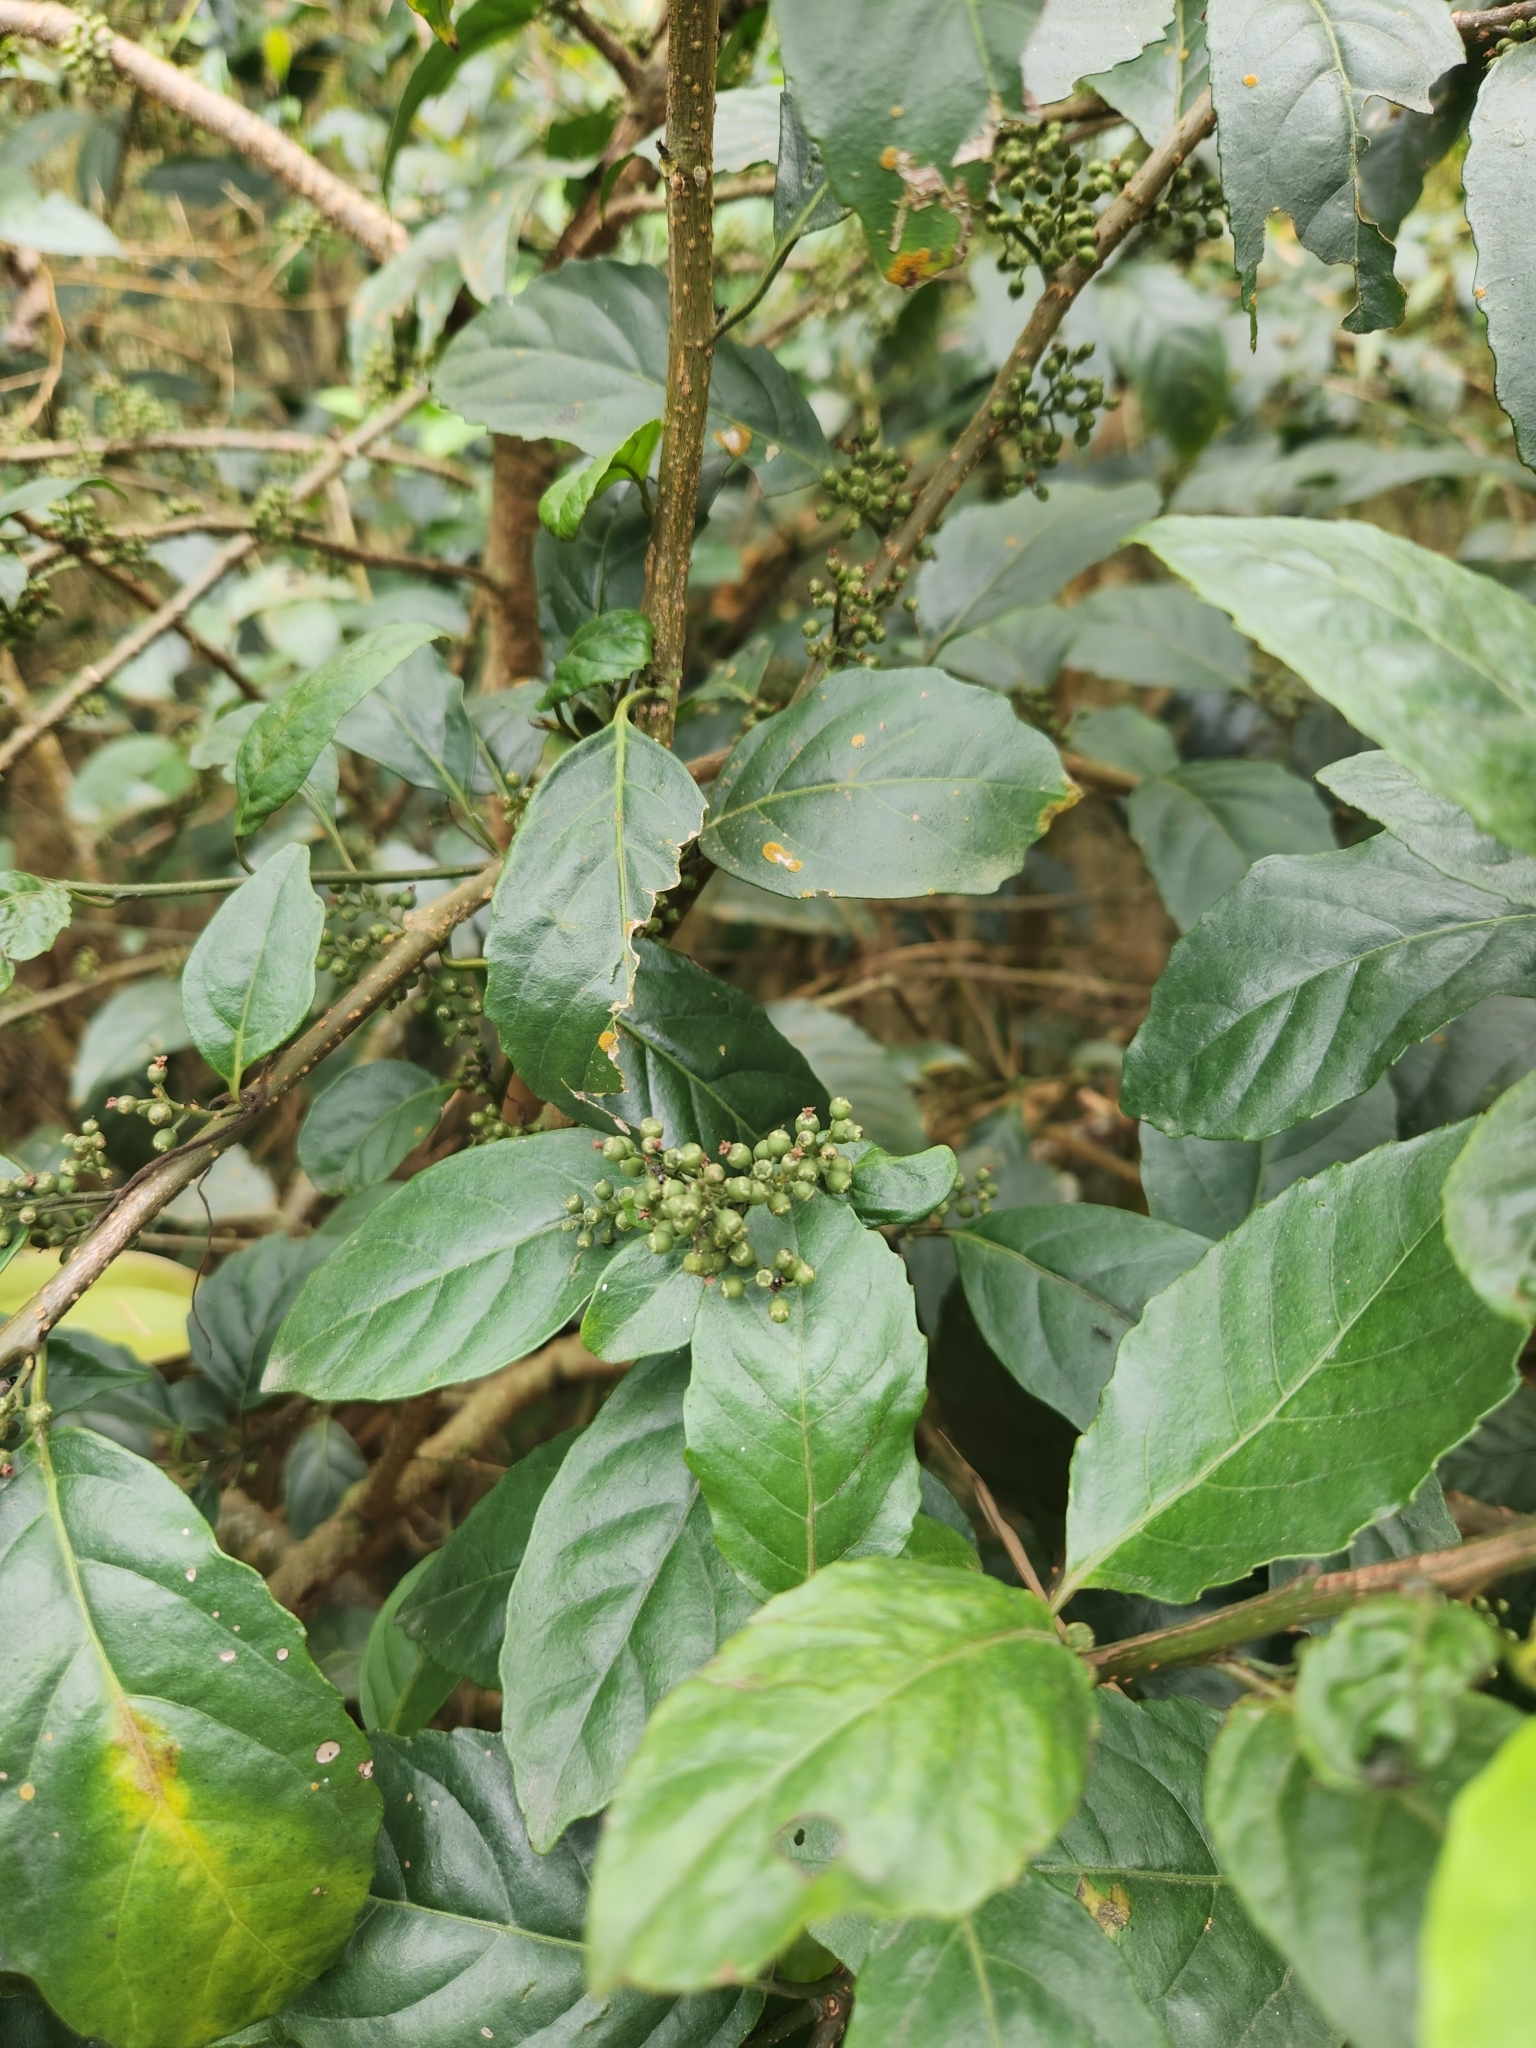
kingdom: Plantae
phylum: Tracheophyta
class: Magnoliopsida
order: Ericales
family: Primulaceae
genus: Maesa
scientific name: Maesa perlaria
